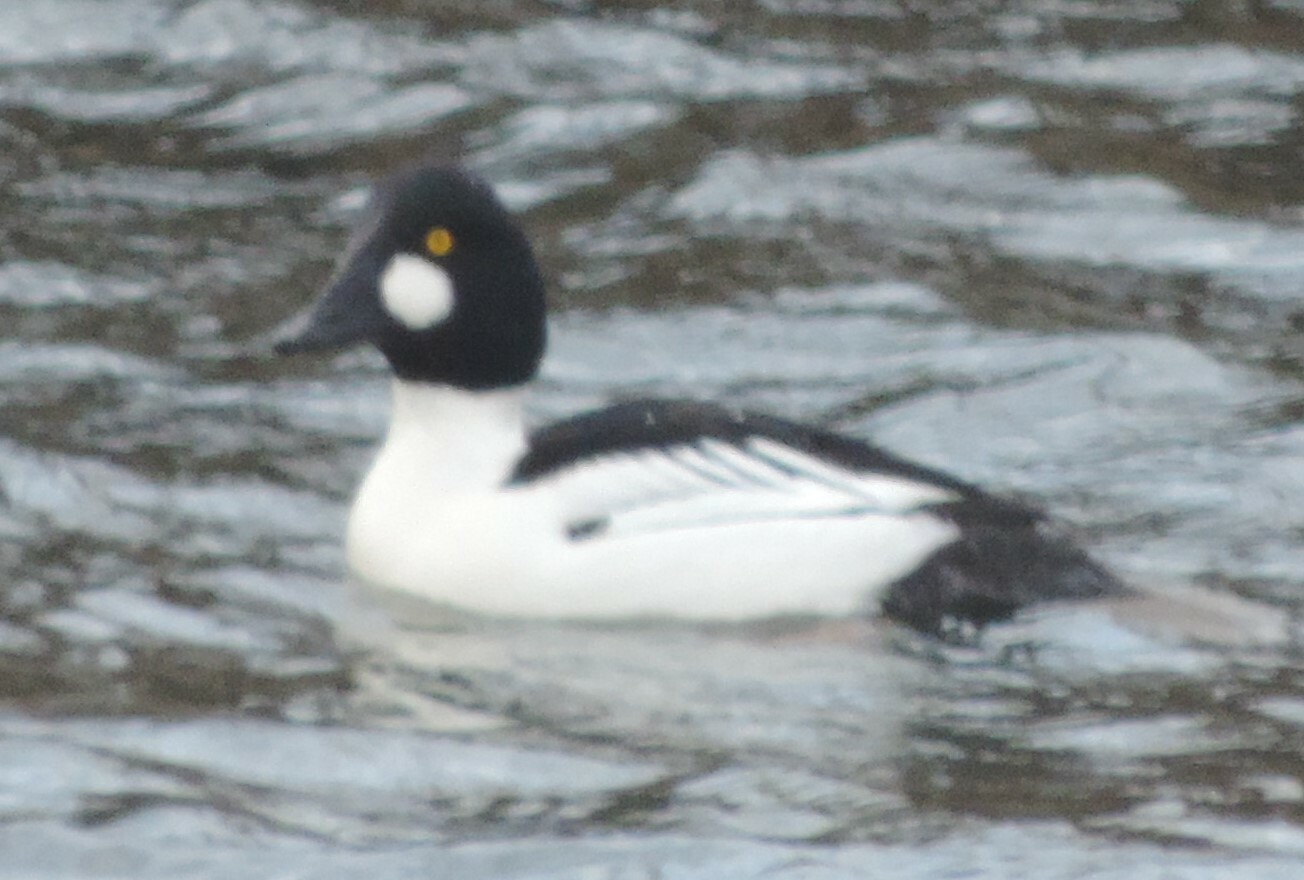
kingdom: Animalia
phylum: Chordata
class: Aves
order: Anseriformes
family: Anatidae
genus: Bucephala
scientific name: Bucephala clangula
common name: Common goldeneye
